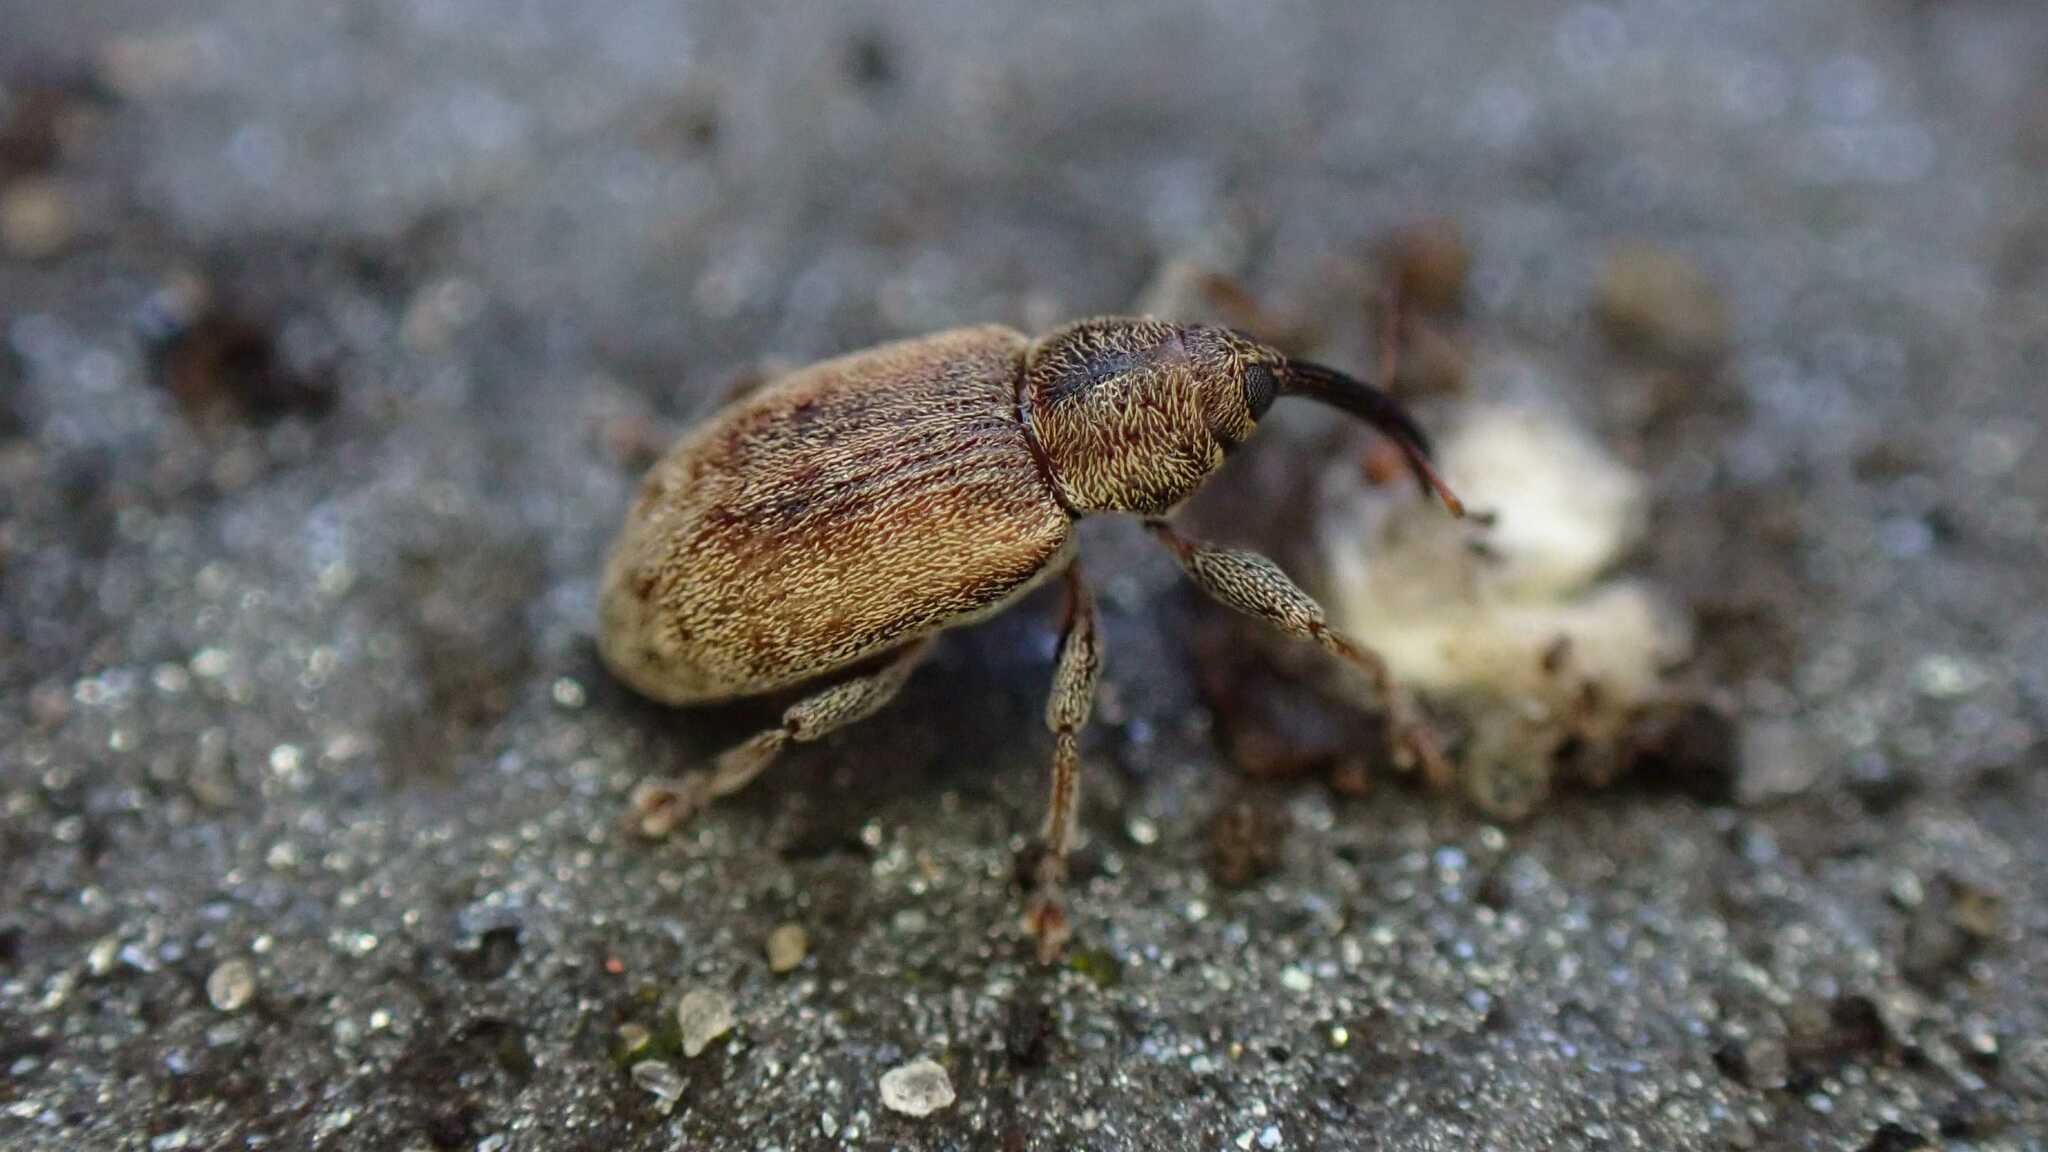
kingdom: Animalia
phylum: Arthropoda
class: Insecta
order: Coleoptera
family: Curculionidae
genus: Dorytomus
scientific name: Dorytomus melanophthalmus
